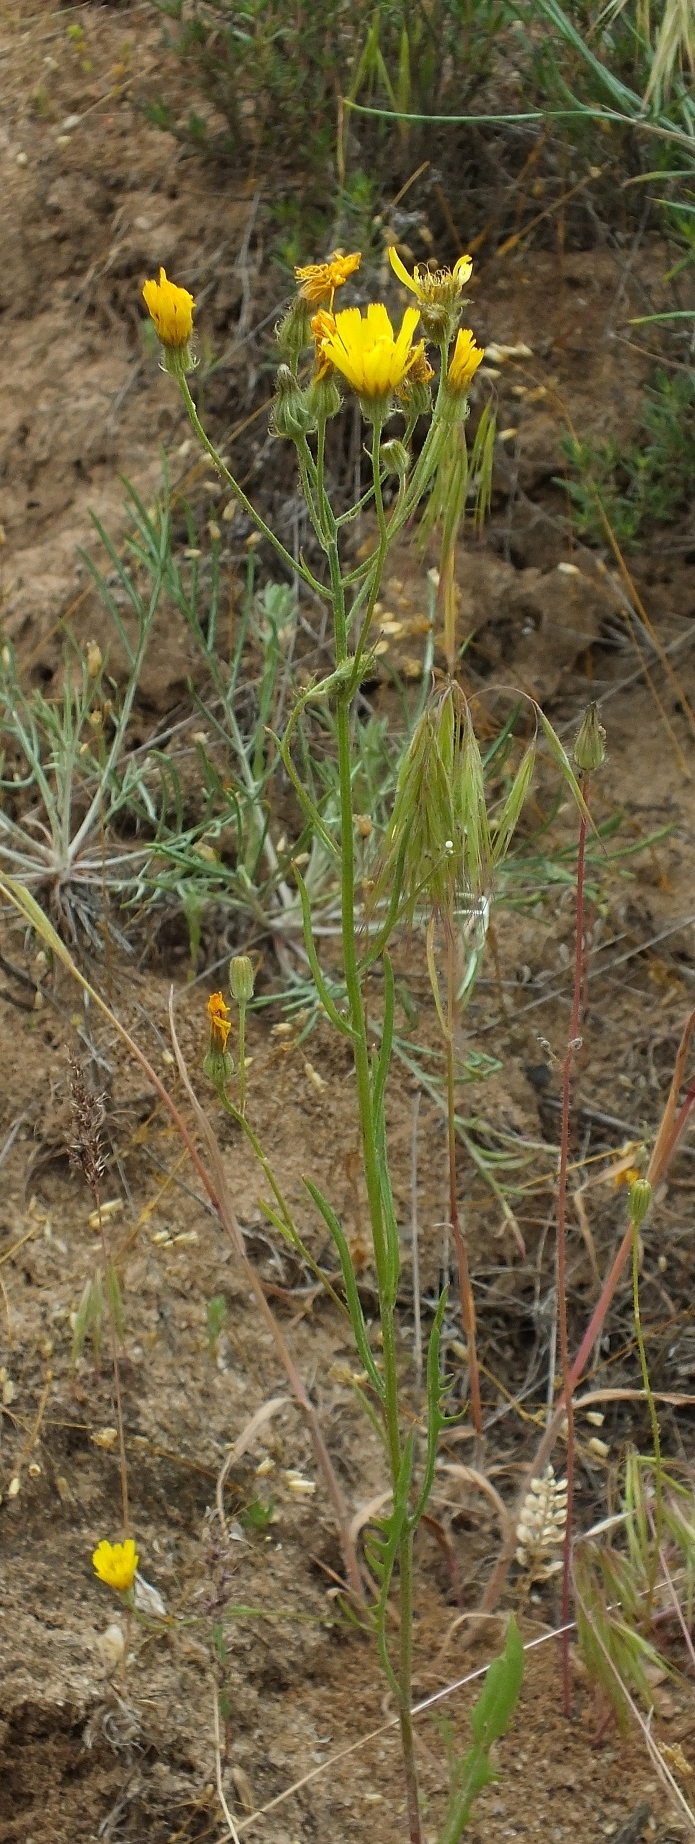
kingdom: Plantae
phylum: Tracheophyta
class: Magnoliopsida
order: Asterales
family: Asteraceae
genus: Crepis
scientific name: Crepis tectorum
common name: Narrow-leaved hawk's-beard
